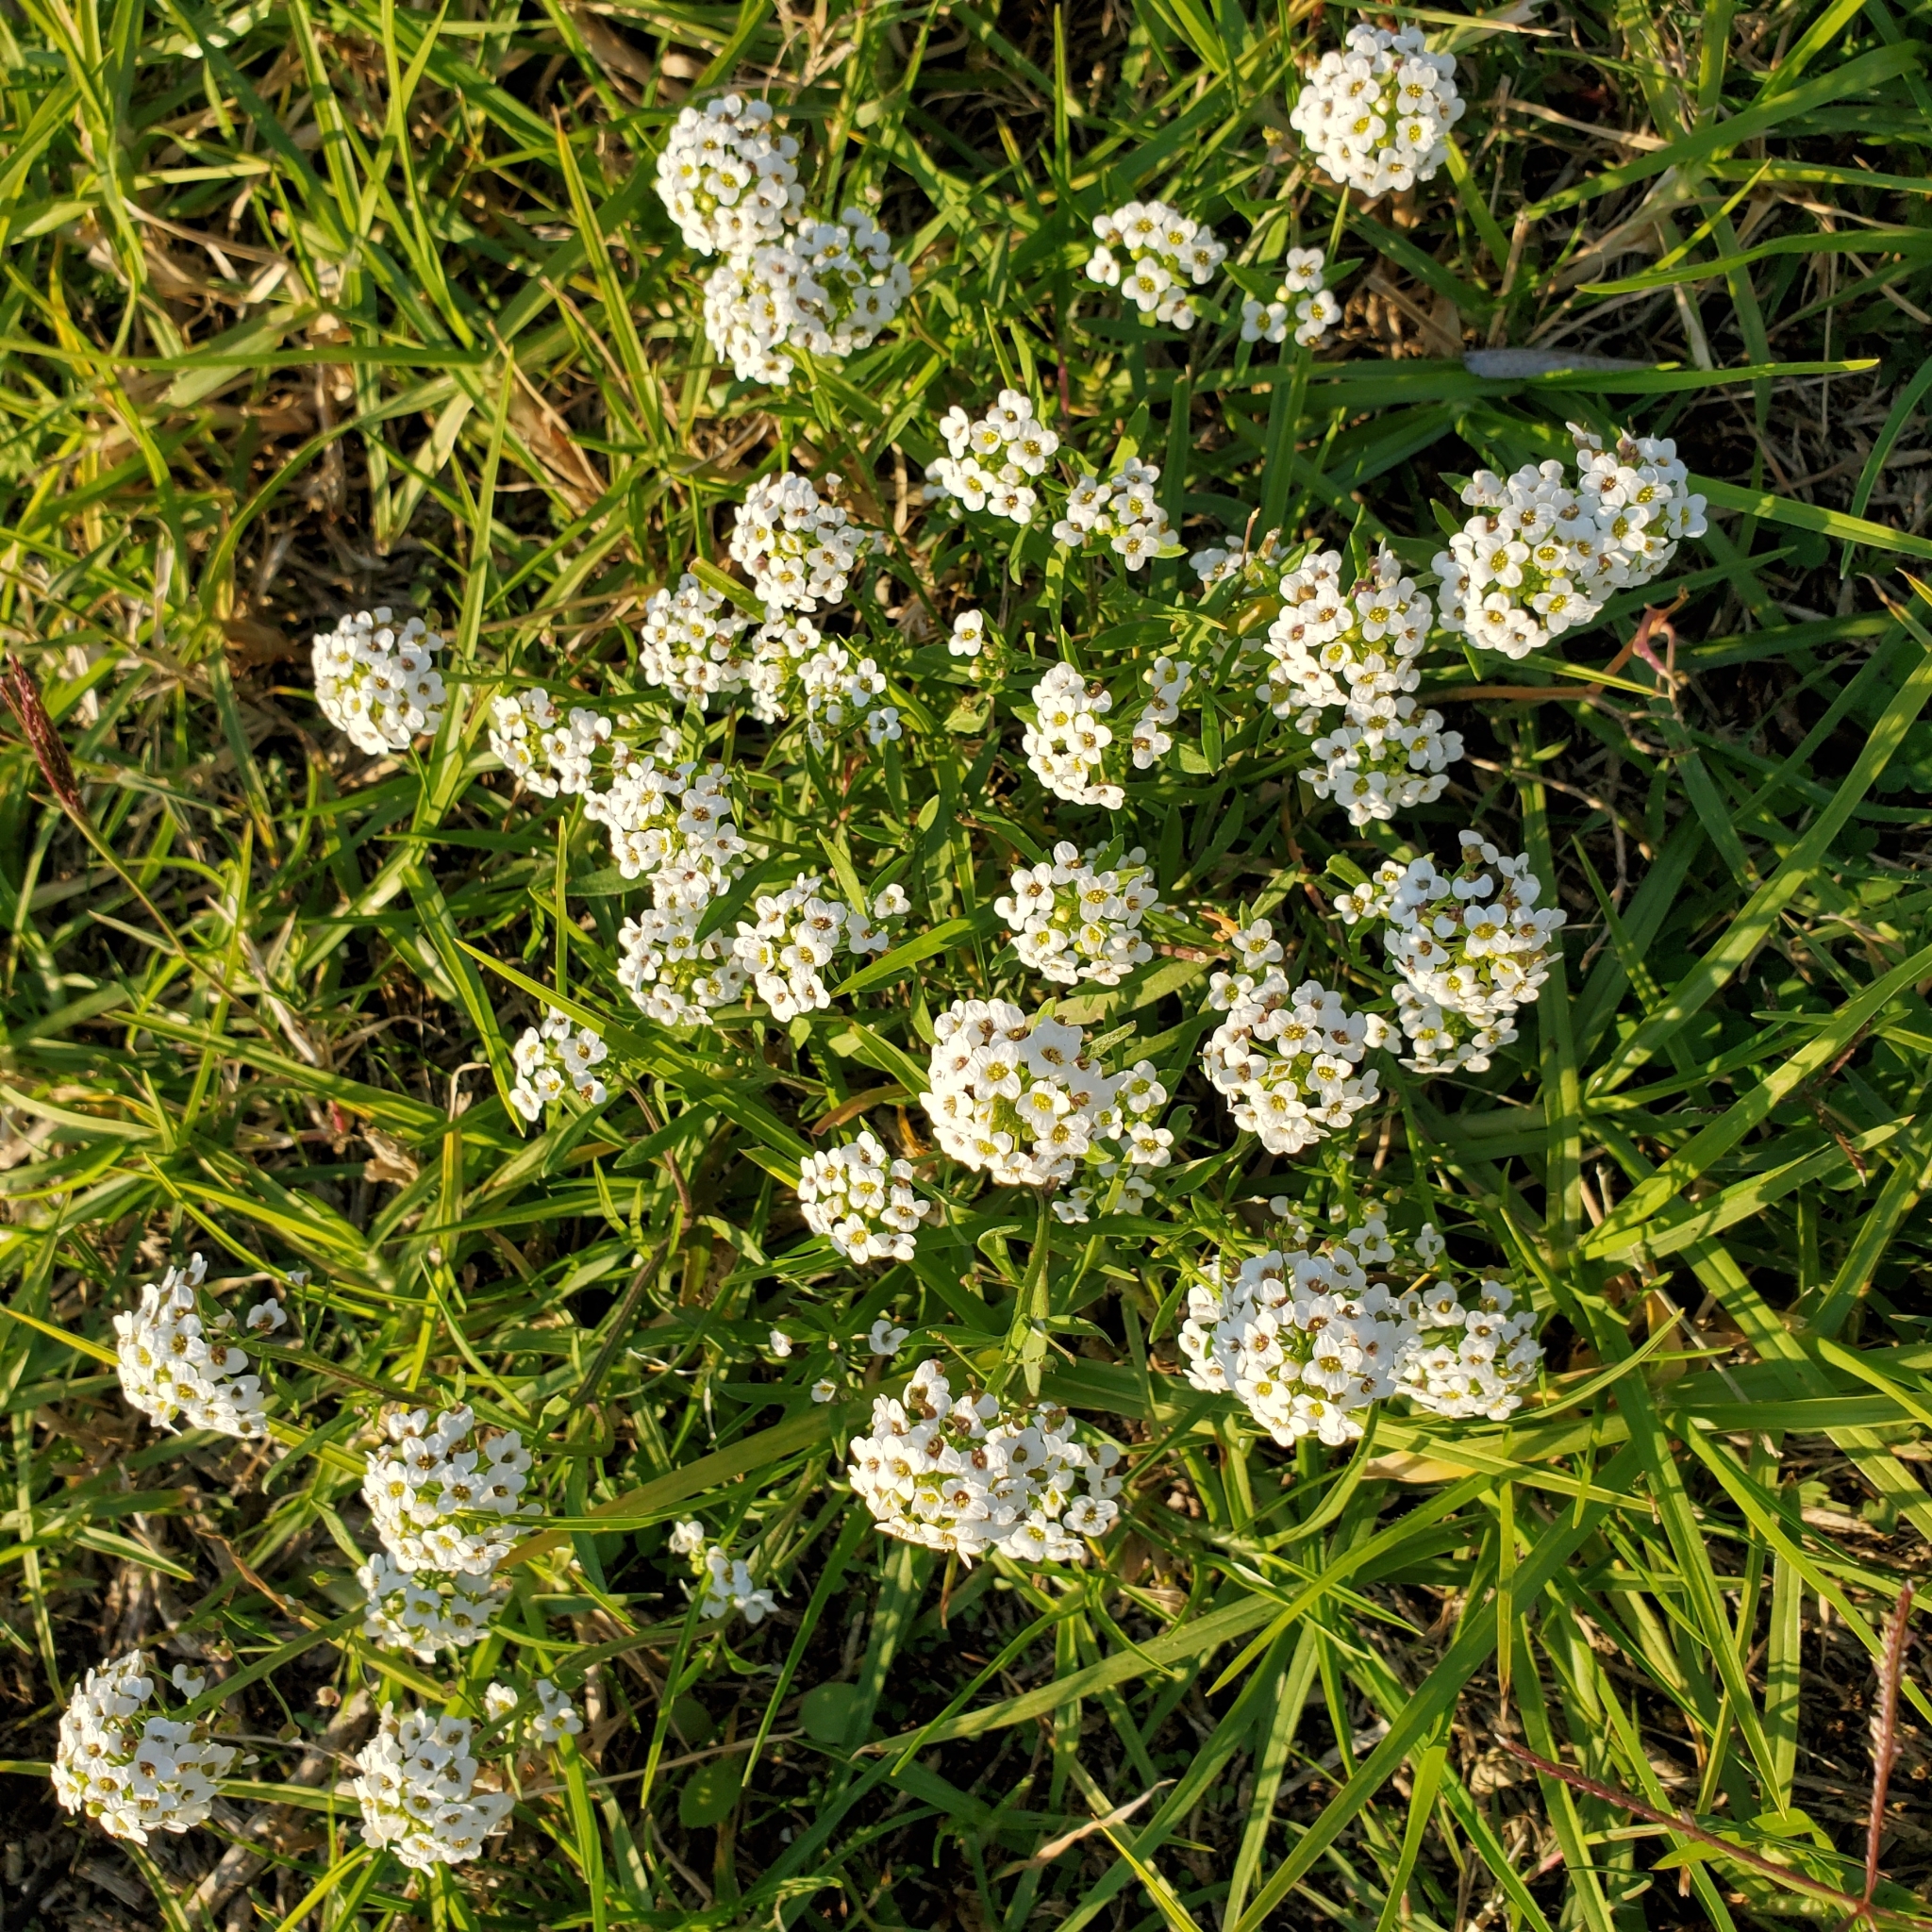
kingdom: Plantae
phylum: Tracheophyta
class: Magnoliopsida
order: Brassicales
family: Brassicaceae
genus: Lobularia
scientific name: Lobularia maritima
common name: Sweet alison
